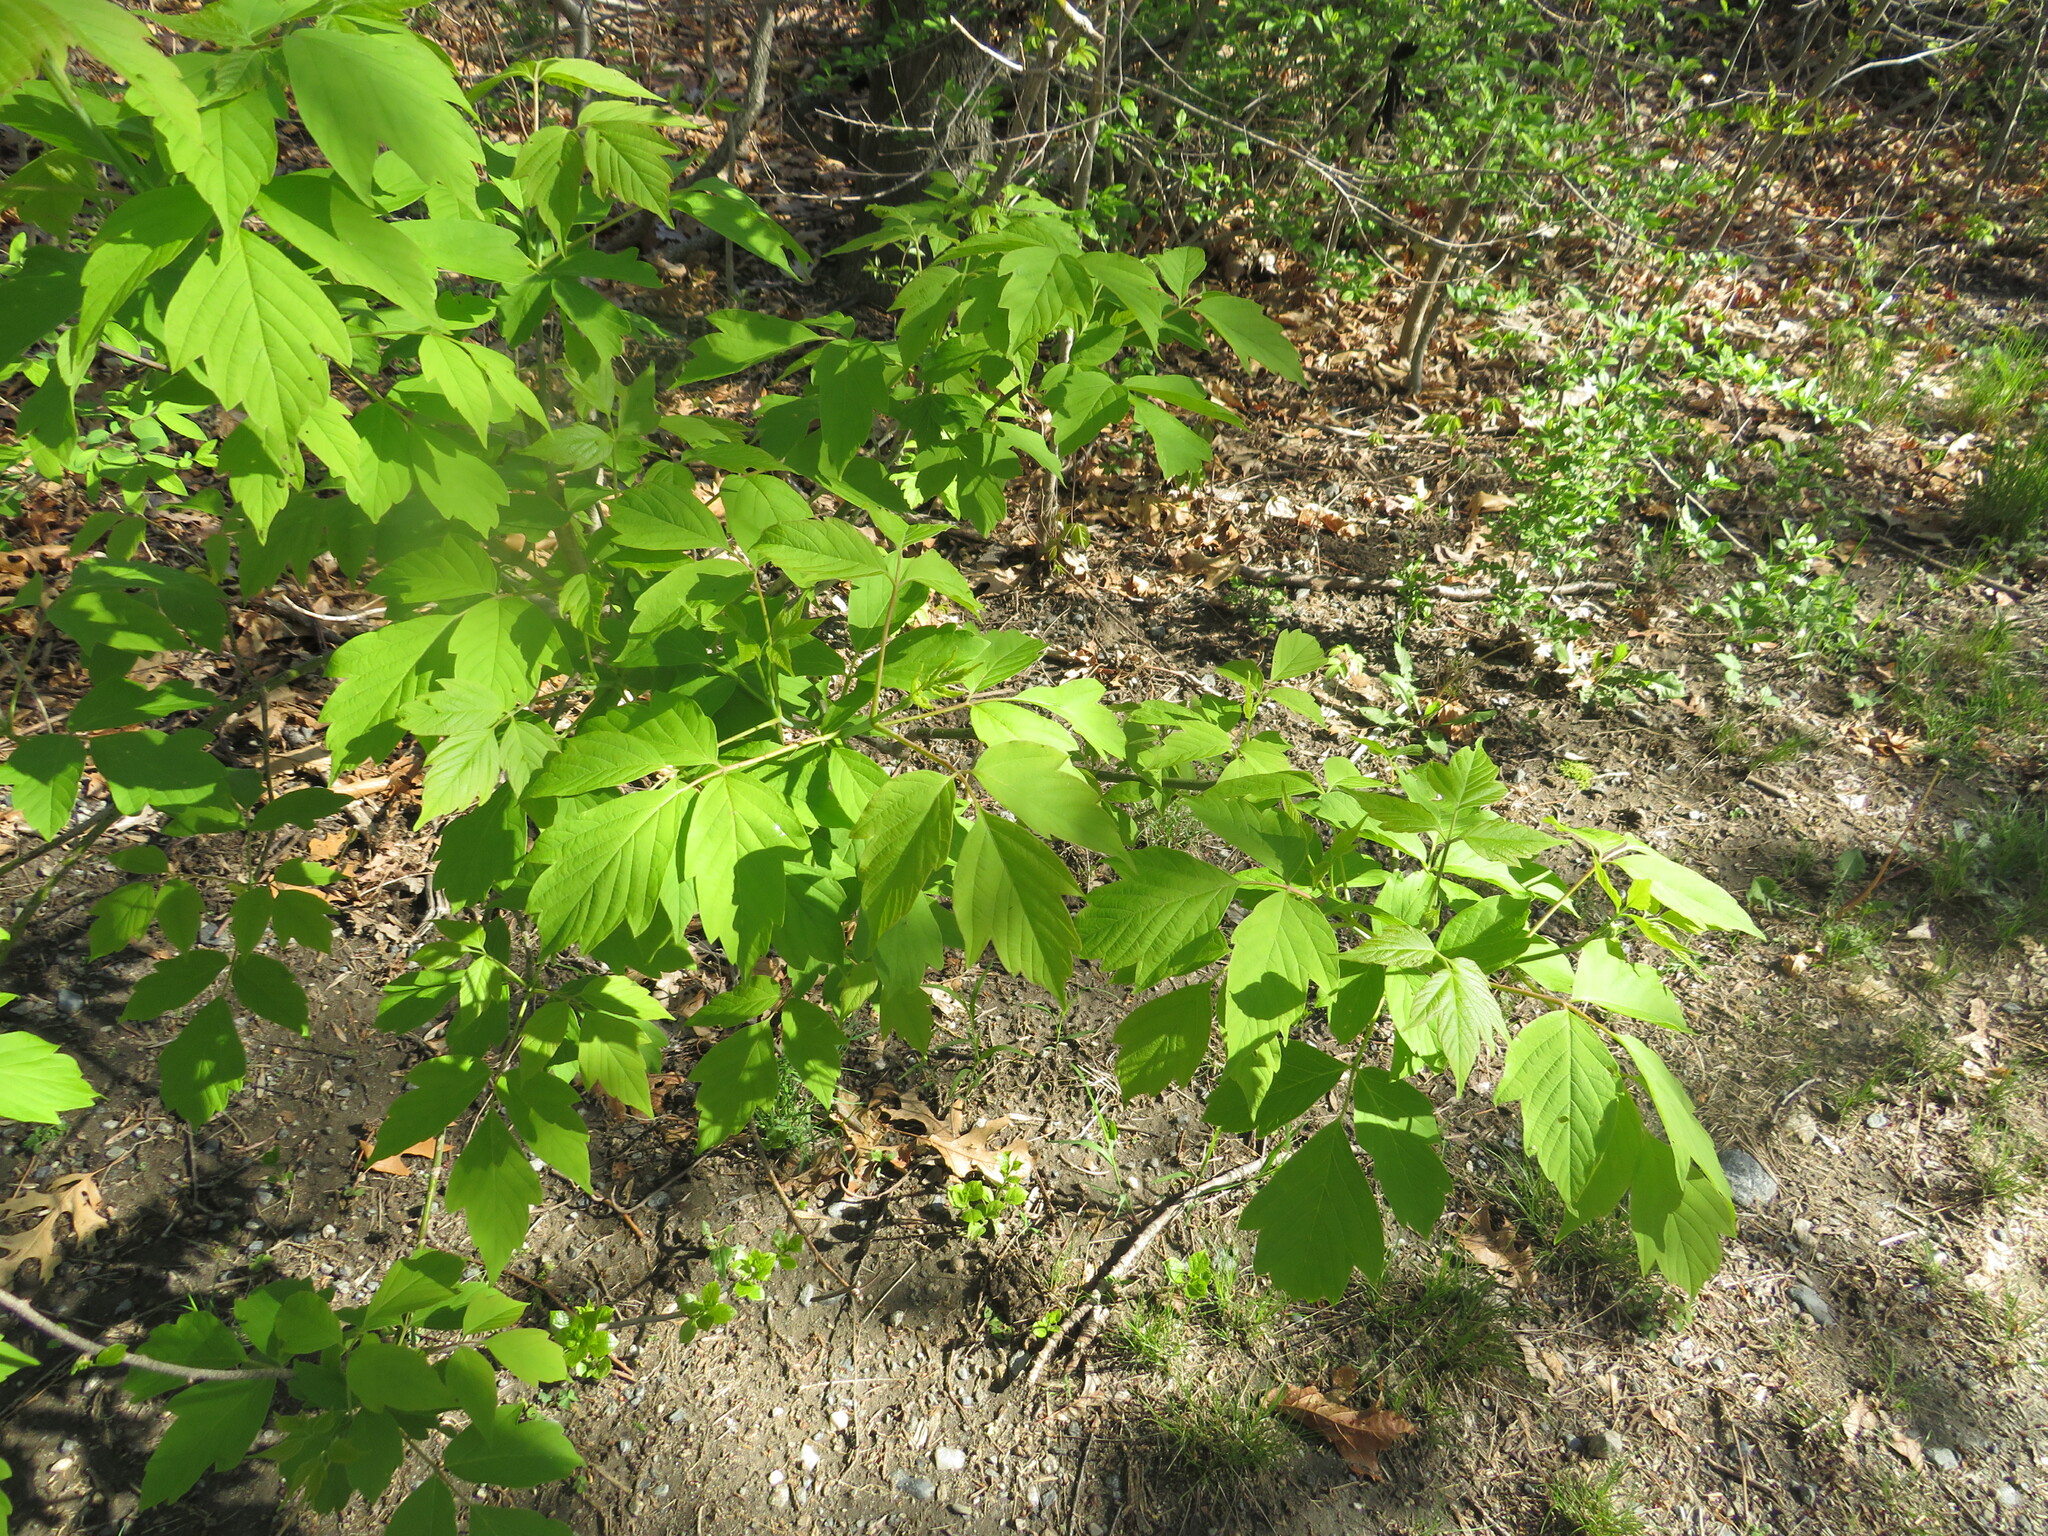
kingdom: Plantae
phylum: Tracheophyta
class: Magnoliopsida
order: Sapindales
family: Sapindaceae
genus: Acer
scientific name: Acer negundo
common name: Ashleaf maple
